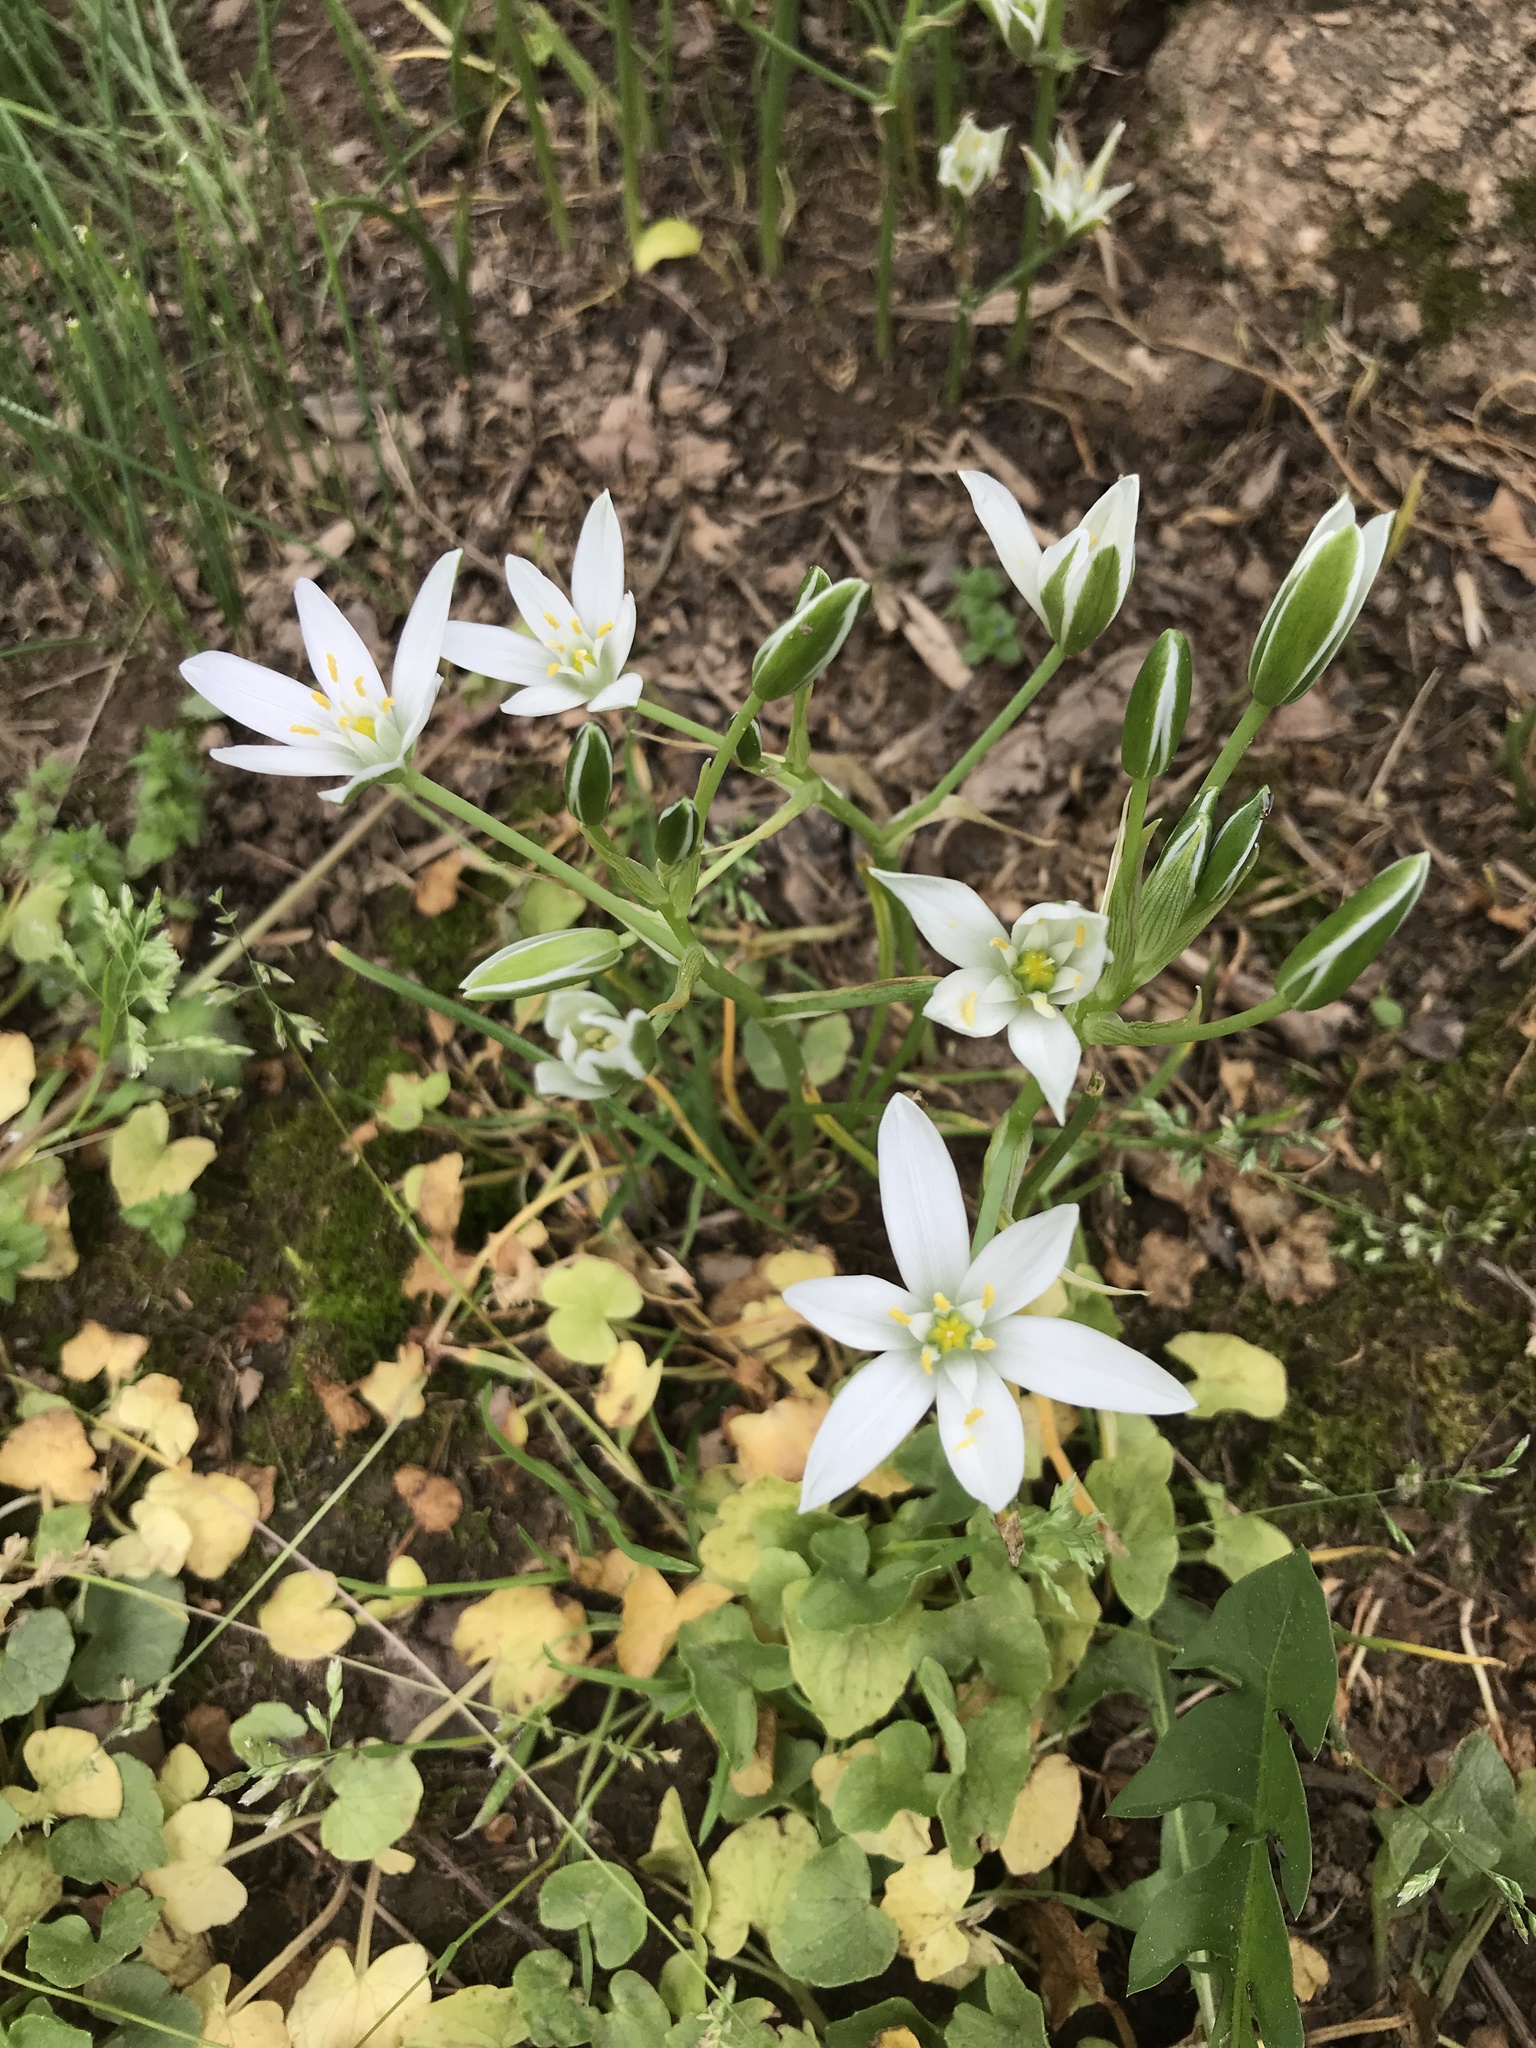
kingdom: Plantae
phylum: Tracheophyta
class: Liliopsida
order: Asparagales
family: Asparagaceae
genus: Ornithogalum
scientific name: Ornithogalum umbellatum
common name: Garden star-of-bethlehem
